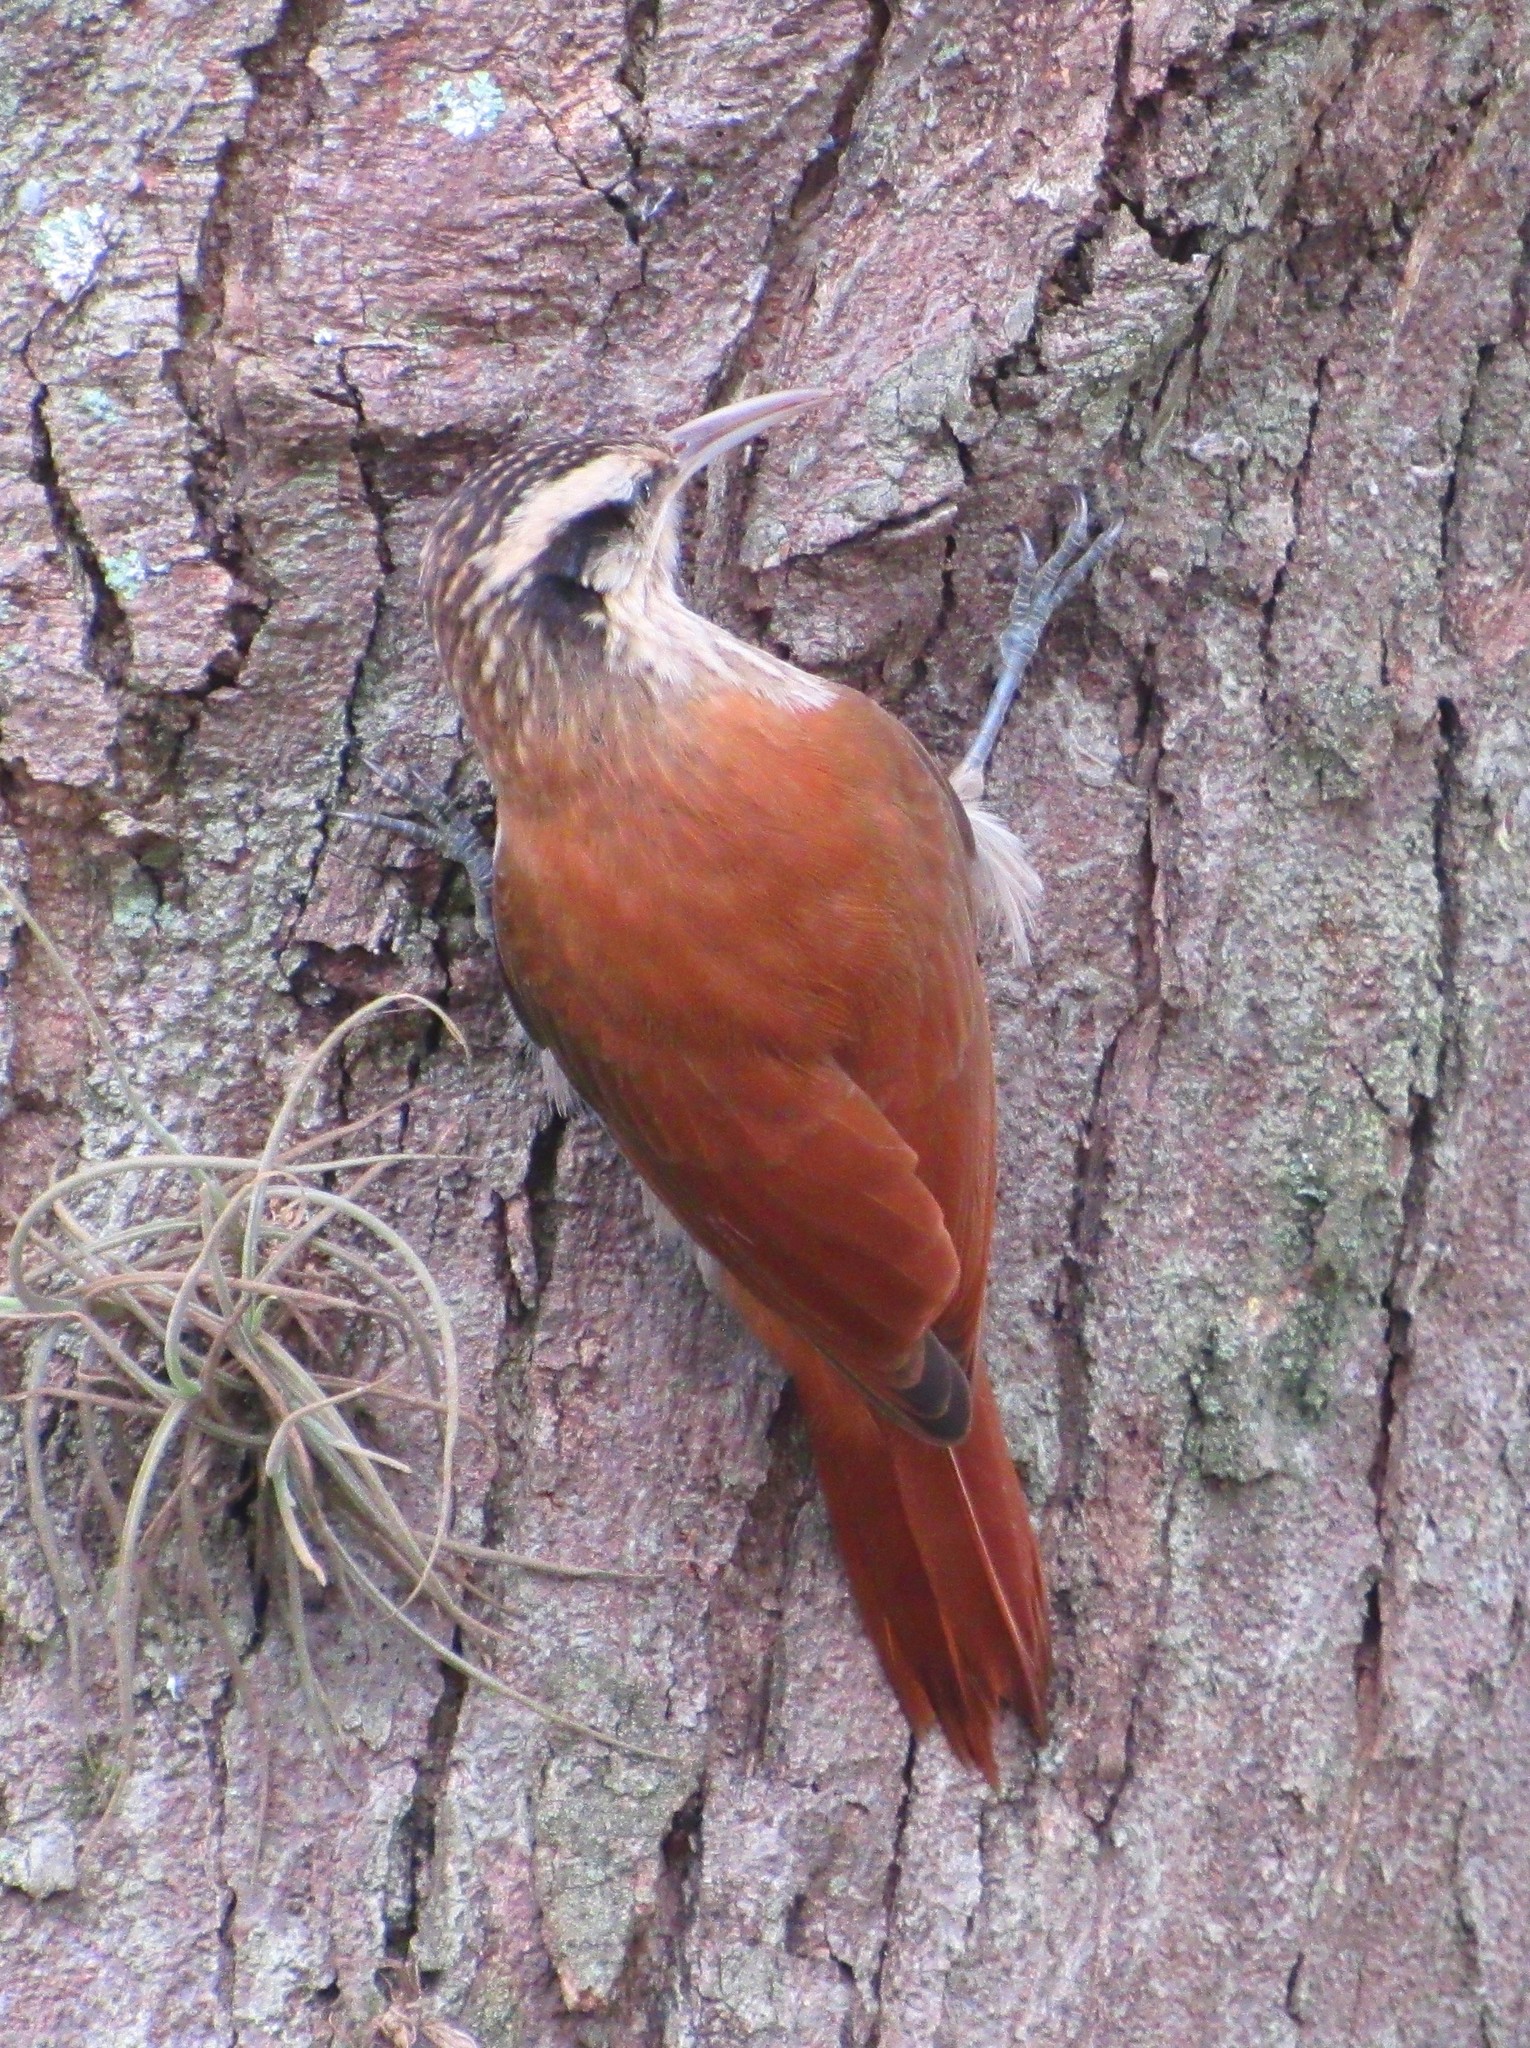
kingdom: Animalia
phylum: Chordata
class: Aves
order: Passeriformes
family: Furnariidae
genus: Lepidocolaptes
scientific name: Lepidocolaptes angustirostris
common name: Narrow-billed woodcreeper
